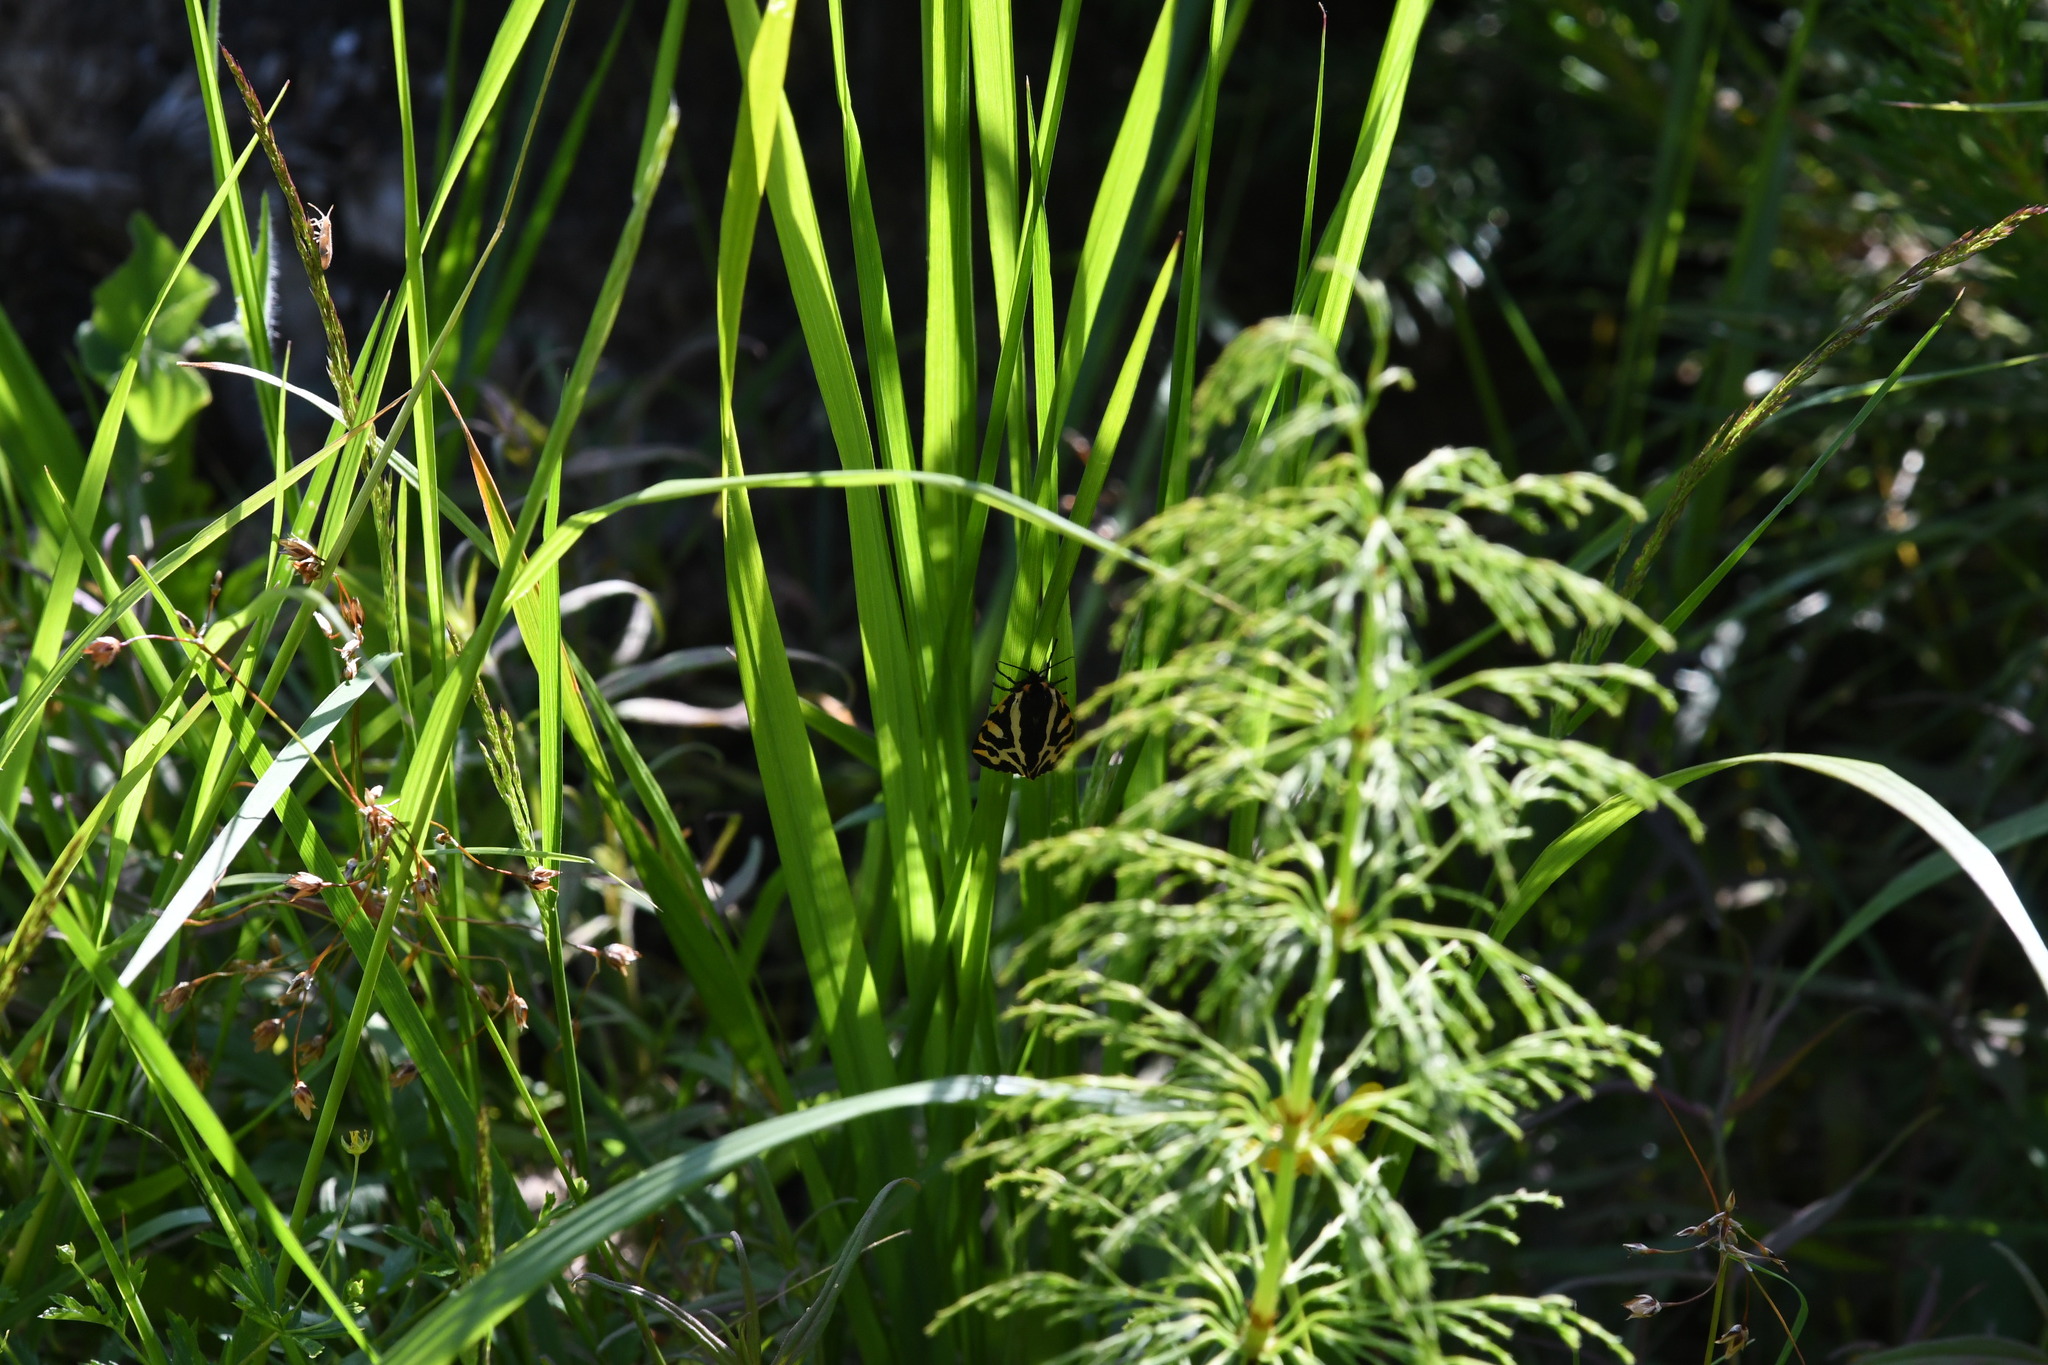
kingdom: Animalia
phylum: Arthropoda
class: Insecta
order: Lepidoptera
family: Erebidae
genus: Parasemia
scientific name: Parasemia plantaginis
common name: Wood tiger
